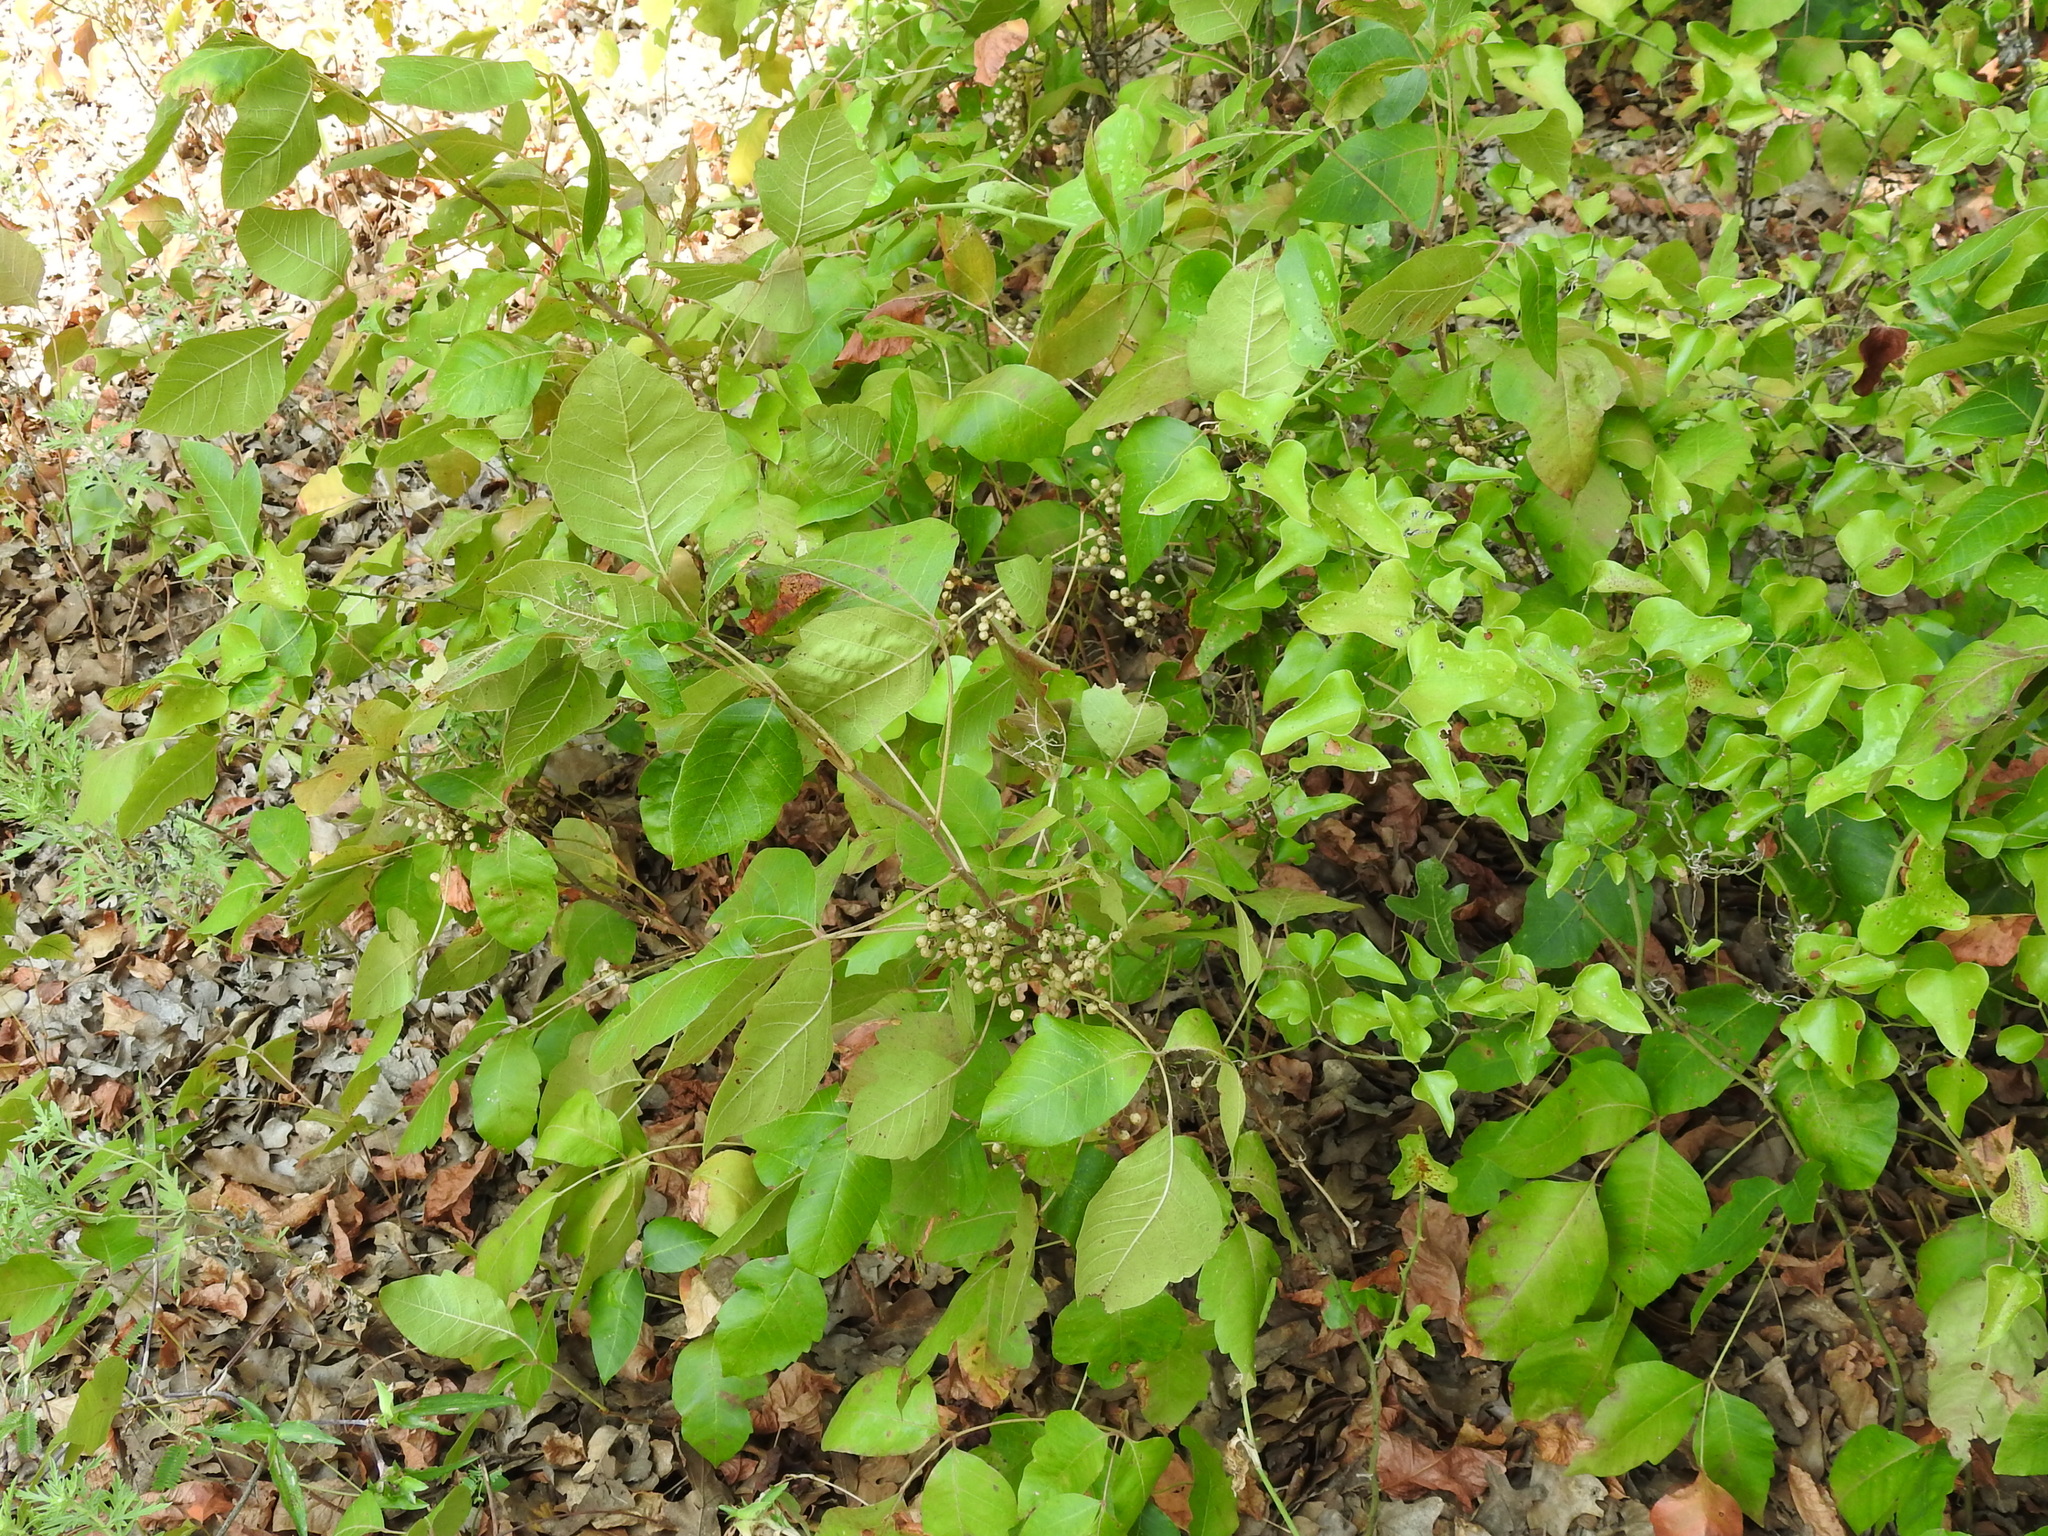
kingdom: Plantae
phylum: Tracheophyta
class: Magnoliopsida
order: Sapindales
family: Anacardiaceae
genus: Toxicodendron
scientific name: Toxicodendron radicans
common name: Poison ivy
